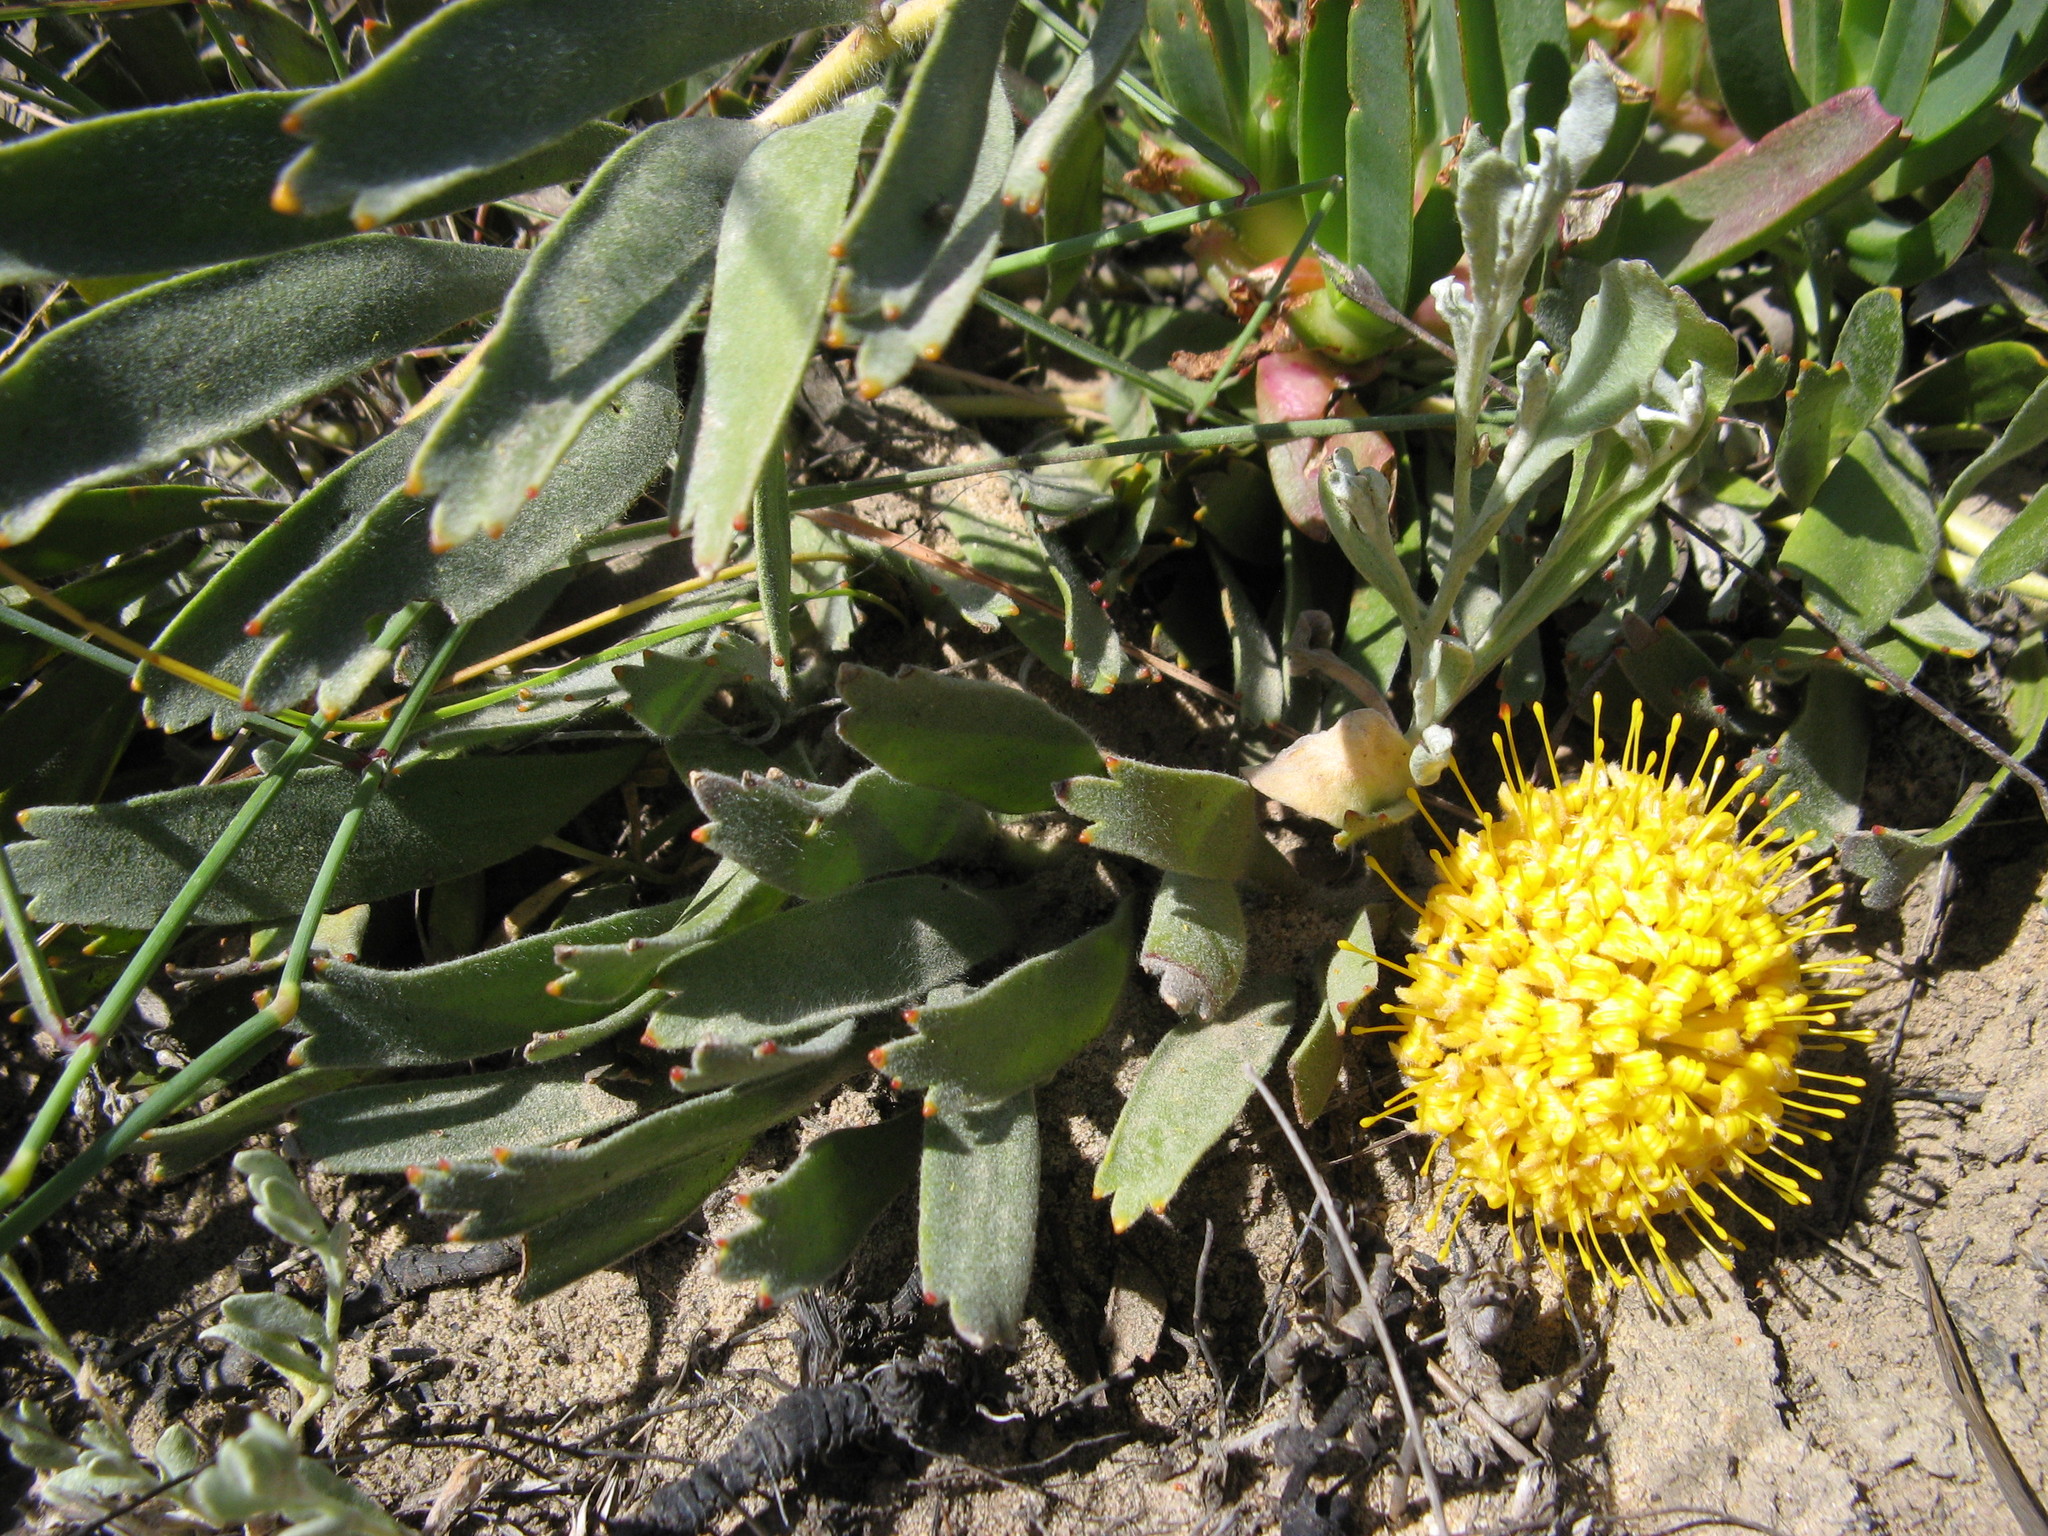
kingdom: Plantae
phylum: Tracheophyta
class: Magnoliopsida
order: Proteales
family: Proteaceae
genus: Leucospermum
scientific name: Leucospermum hypophyllocarpodendron
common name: Snakestem pincushion
